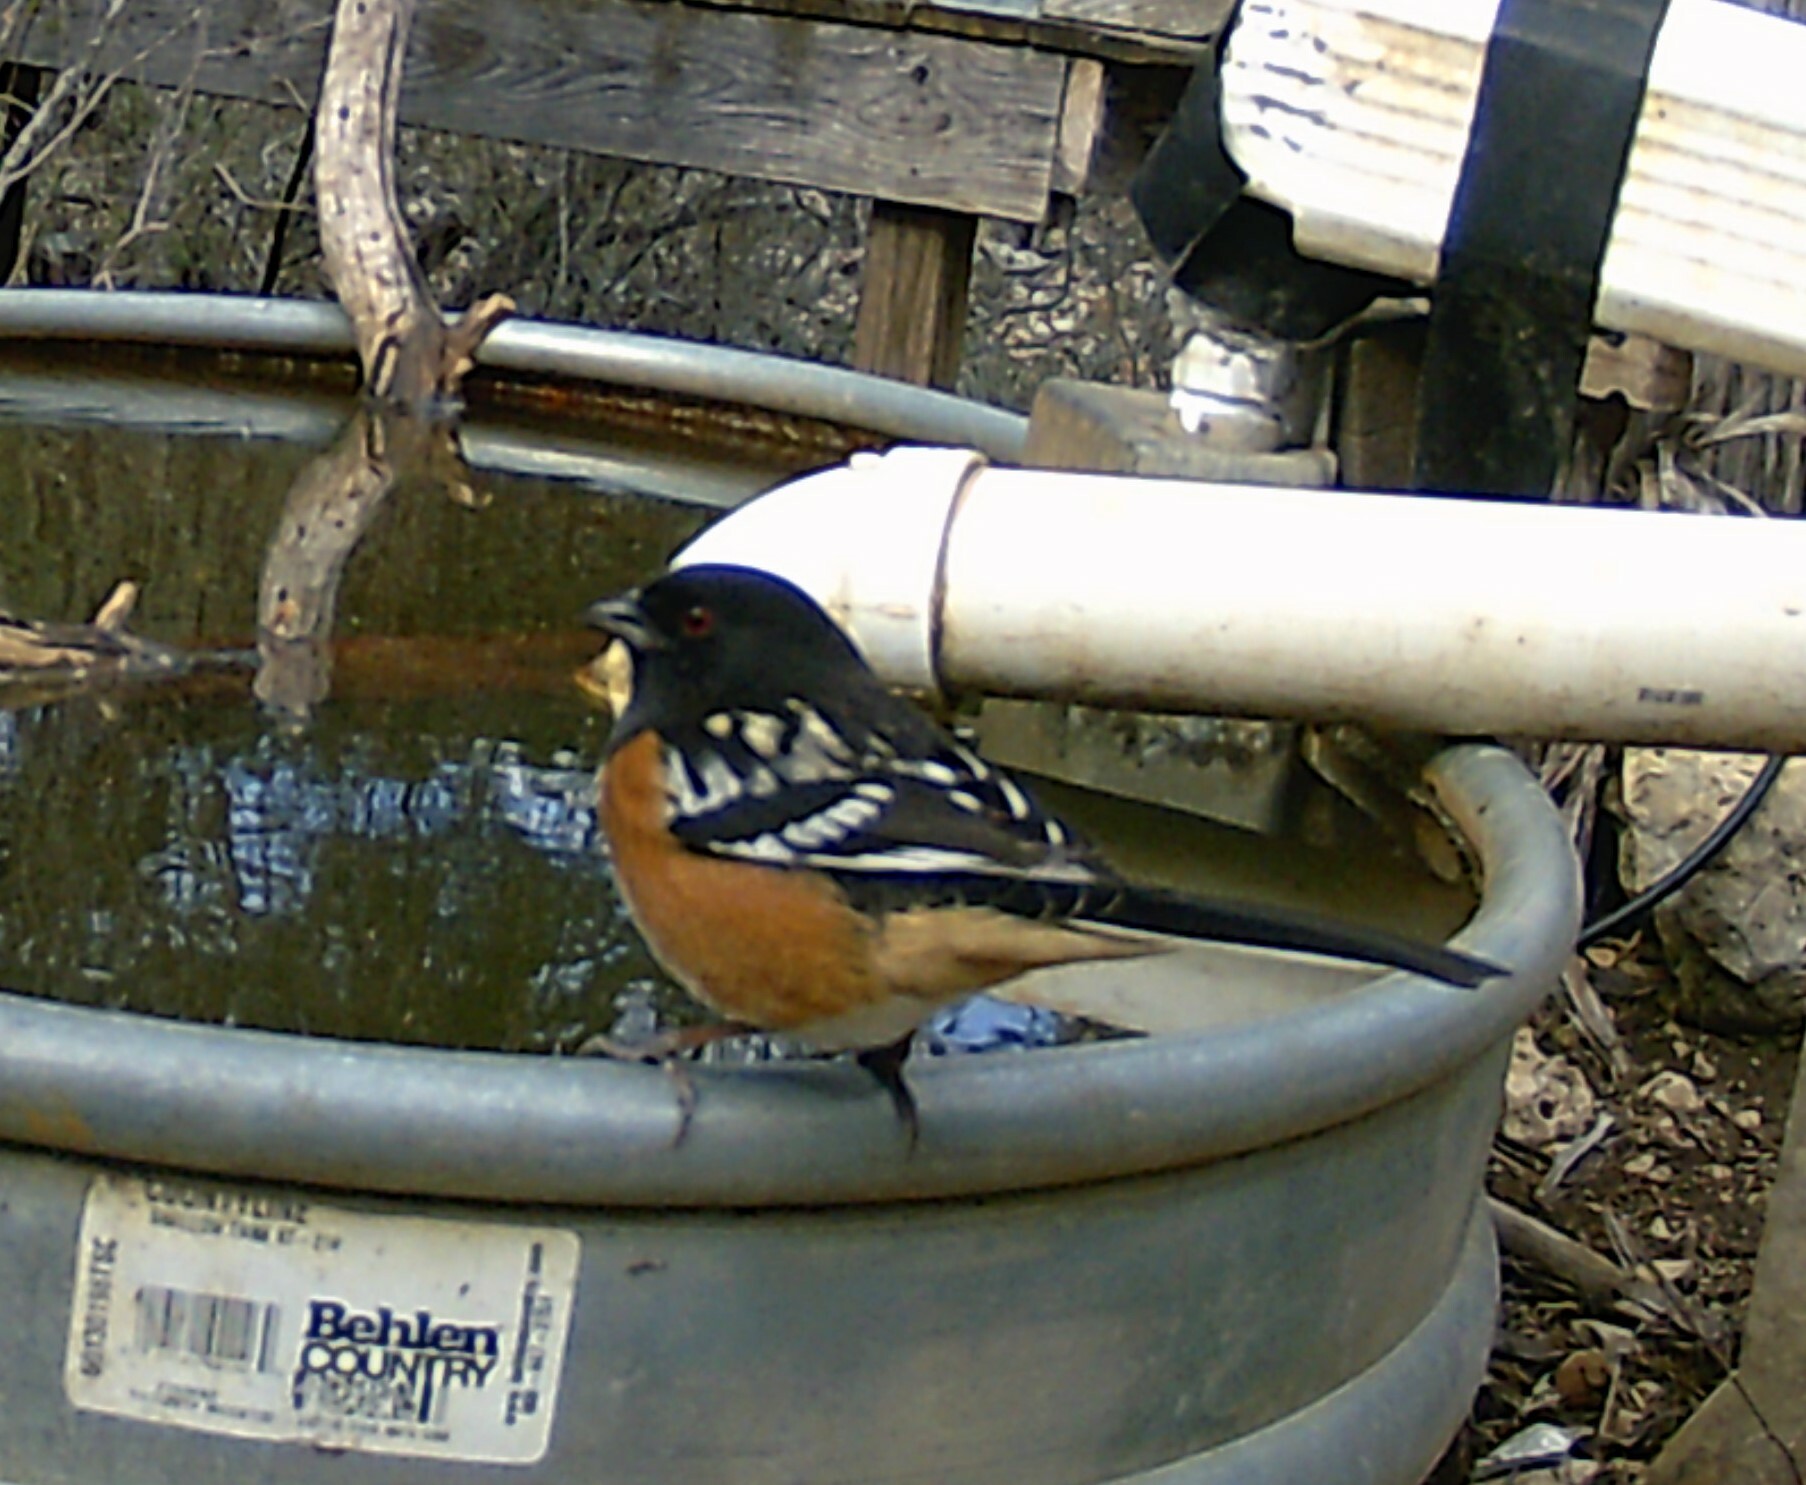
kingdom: Animalia
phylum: Chordata
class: Aves
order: Passeriformes
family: Passerellidae
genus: Pipilo
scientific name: Pipilo maculatus
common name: Spotted towhee
